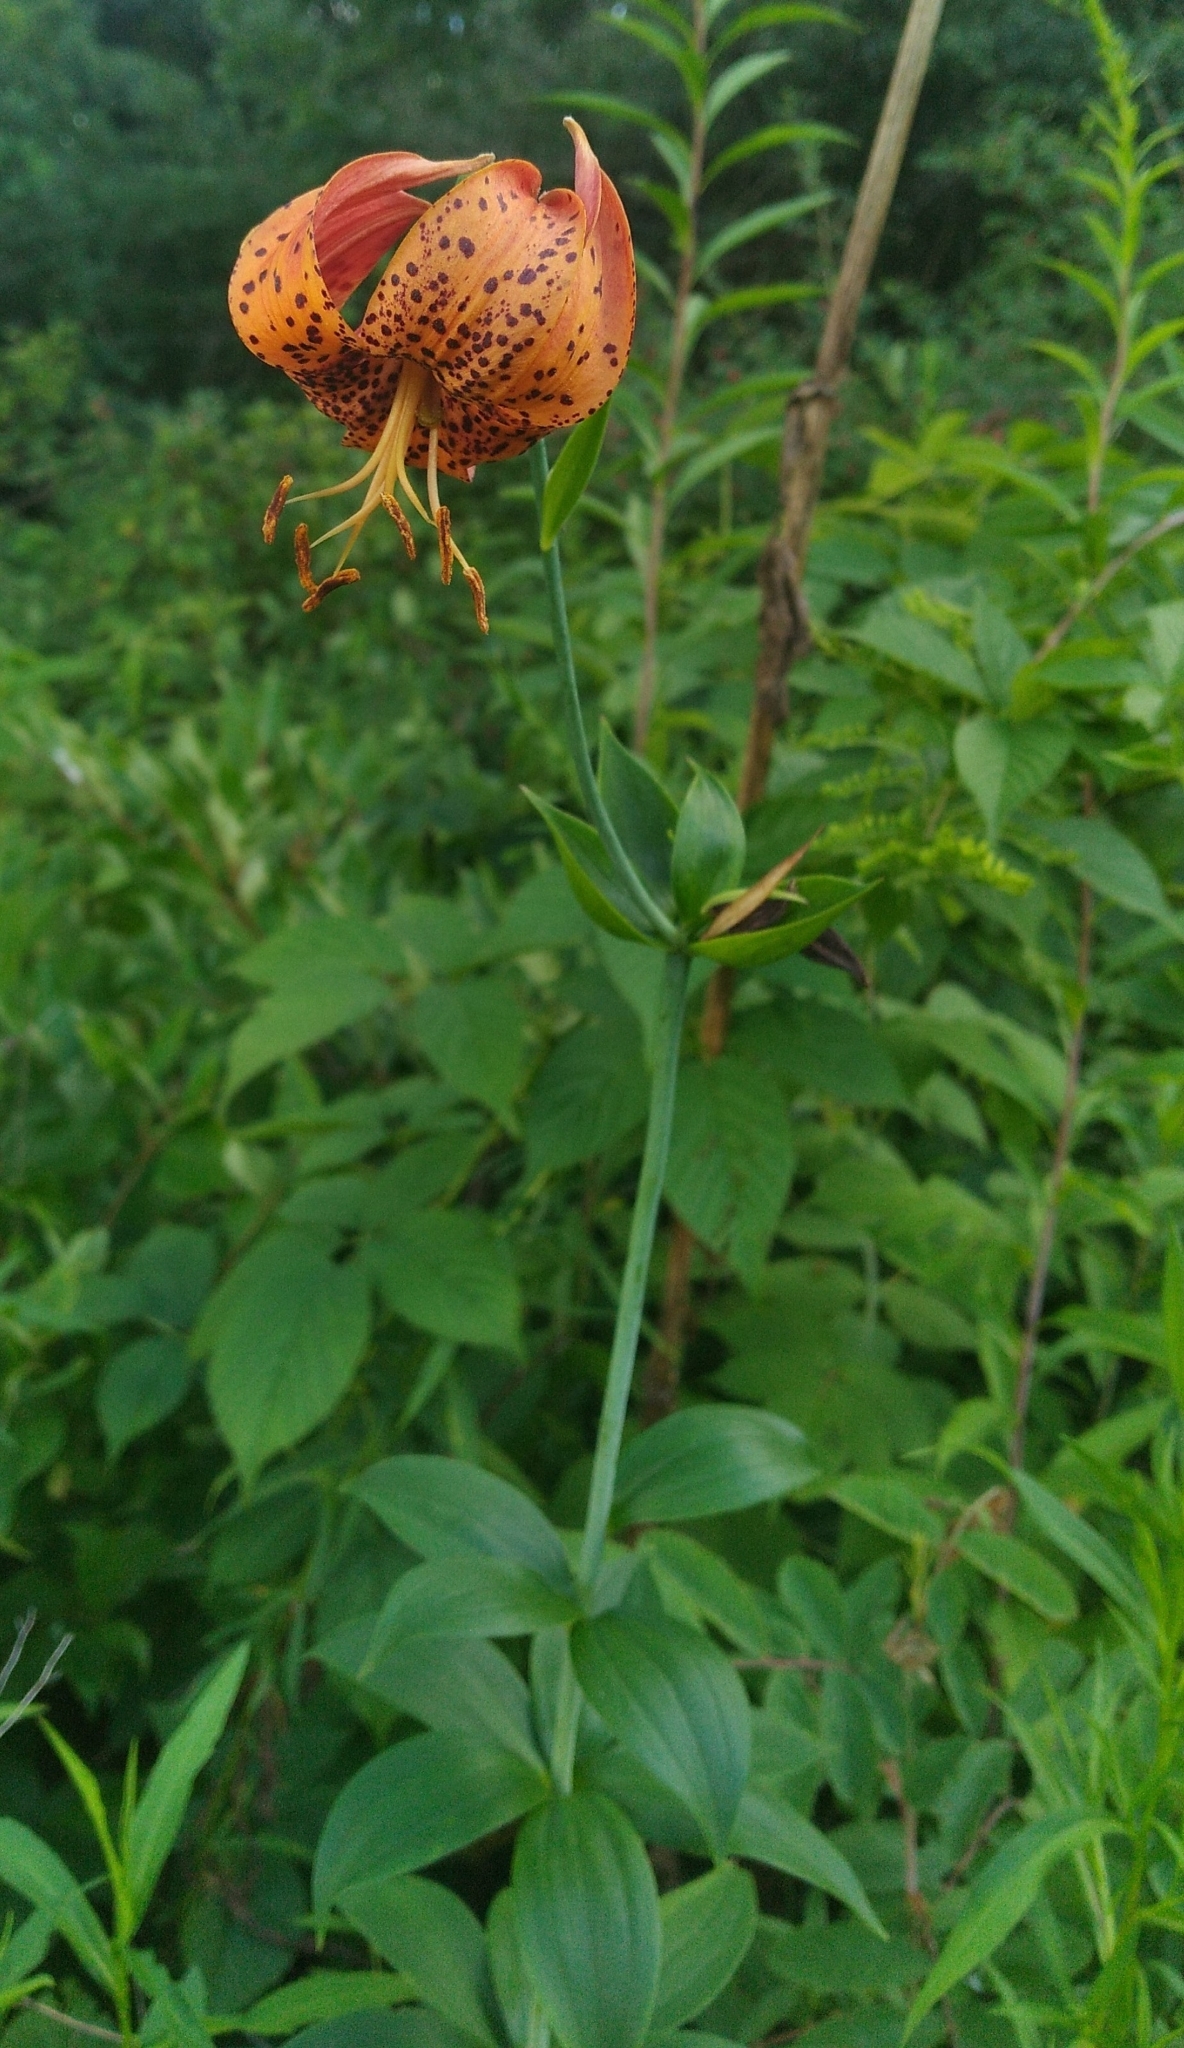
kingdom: Plantae
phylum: Tracheophyta
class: Liliopsida
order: Liliales
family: Liliaceae
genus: Lilium
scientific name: Lilium michiganense
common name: Michigan lily
